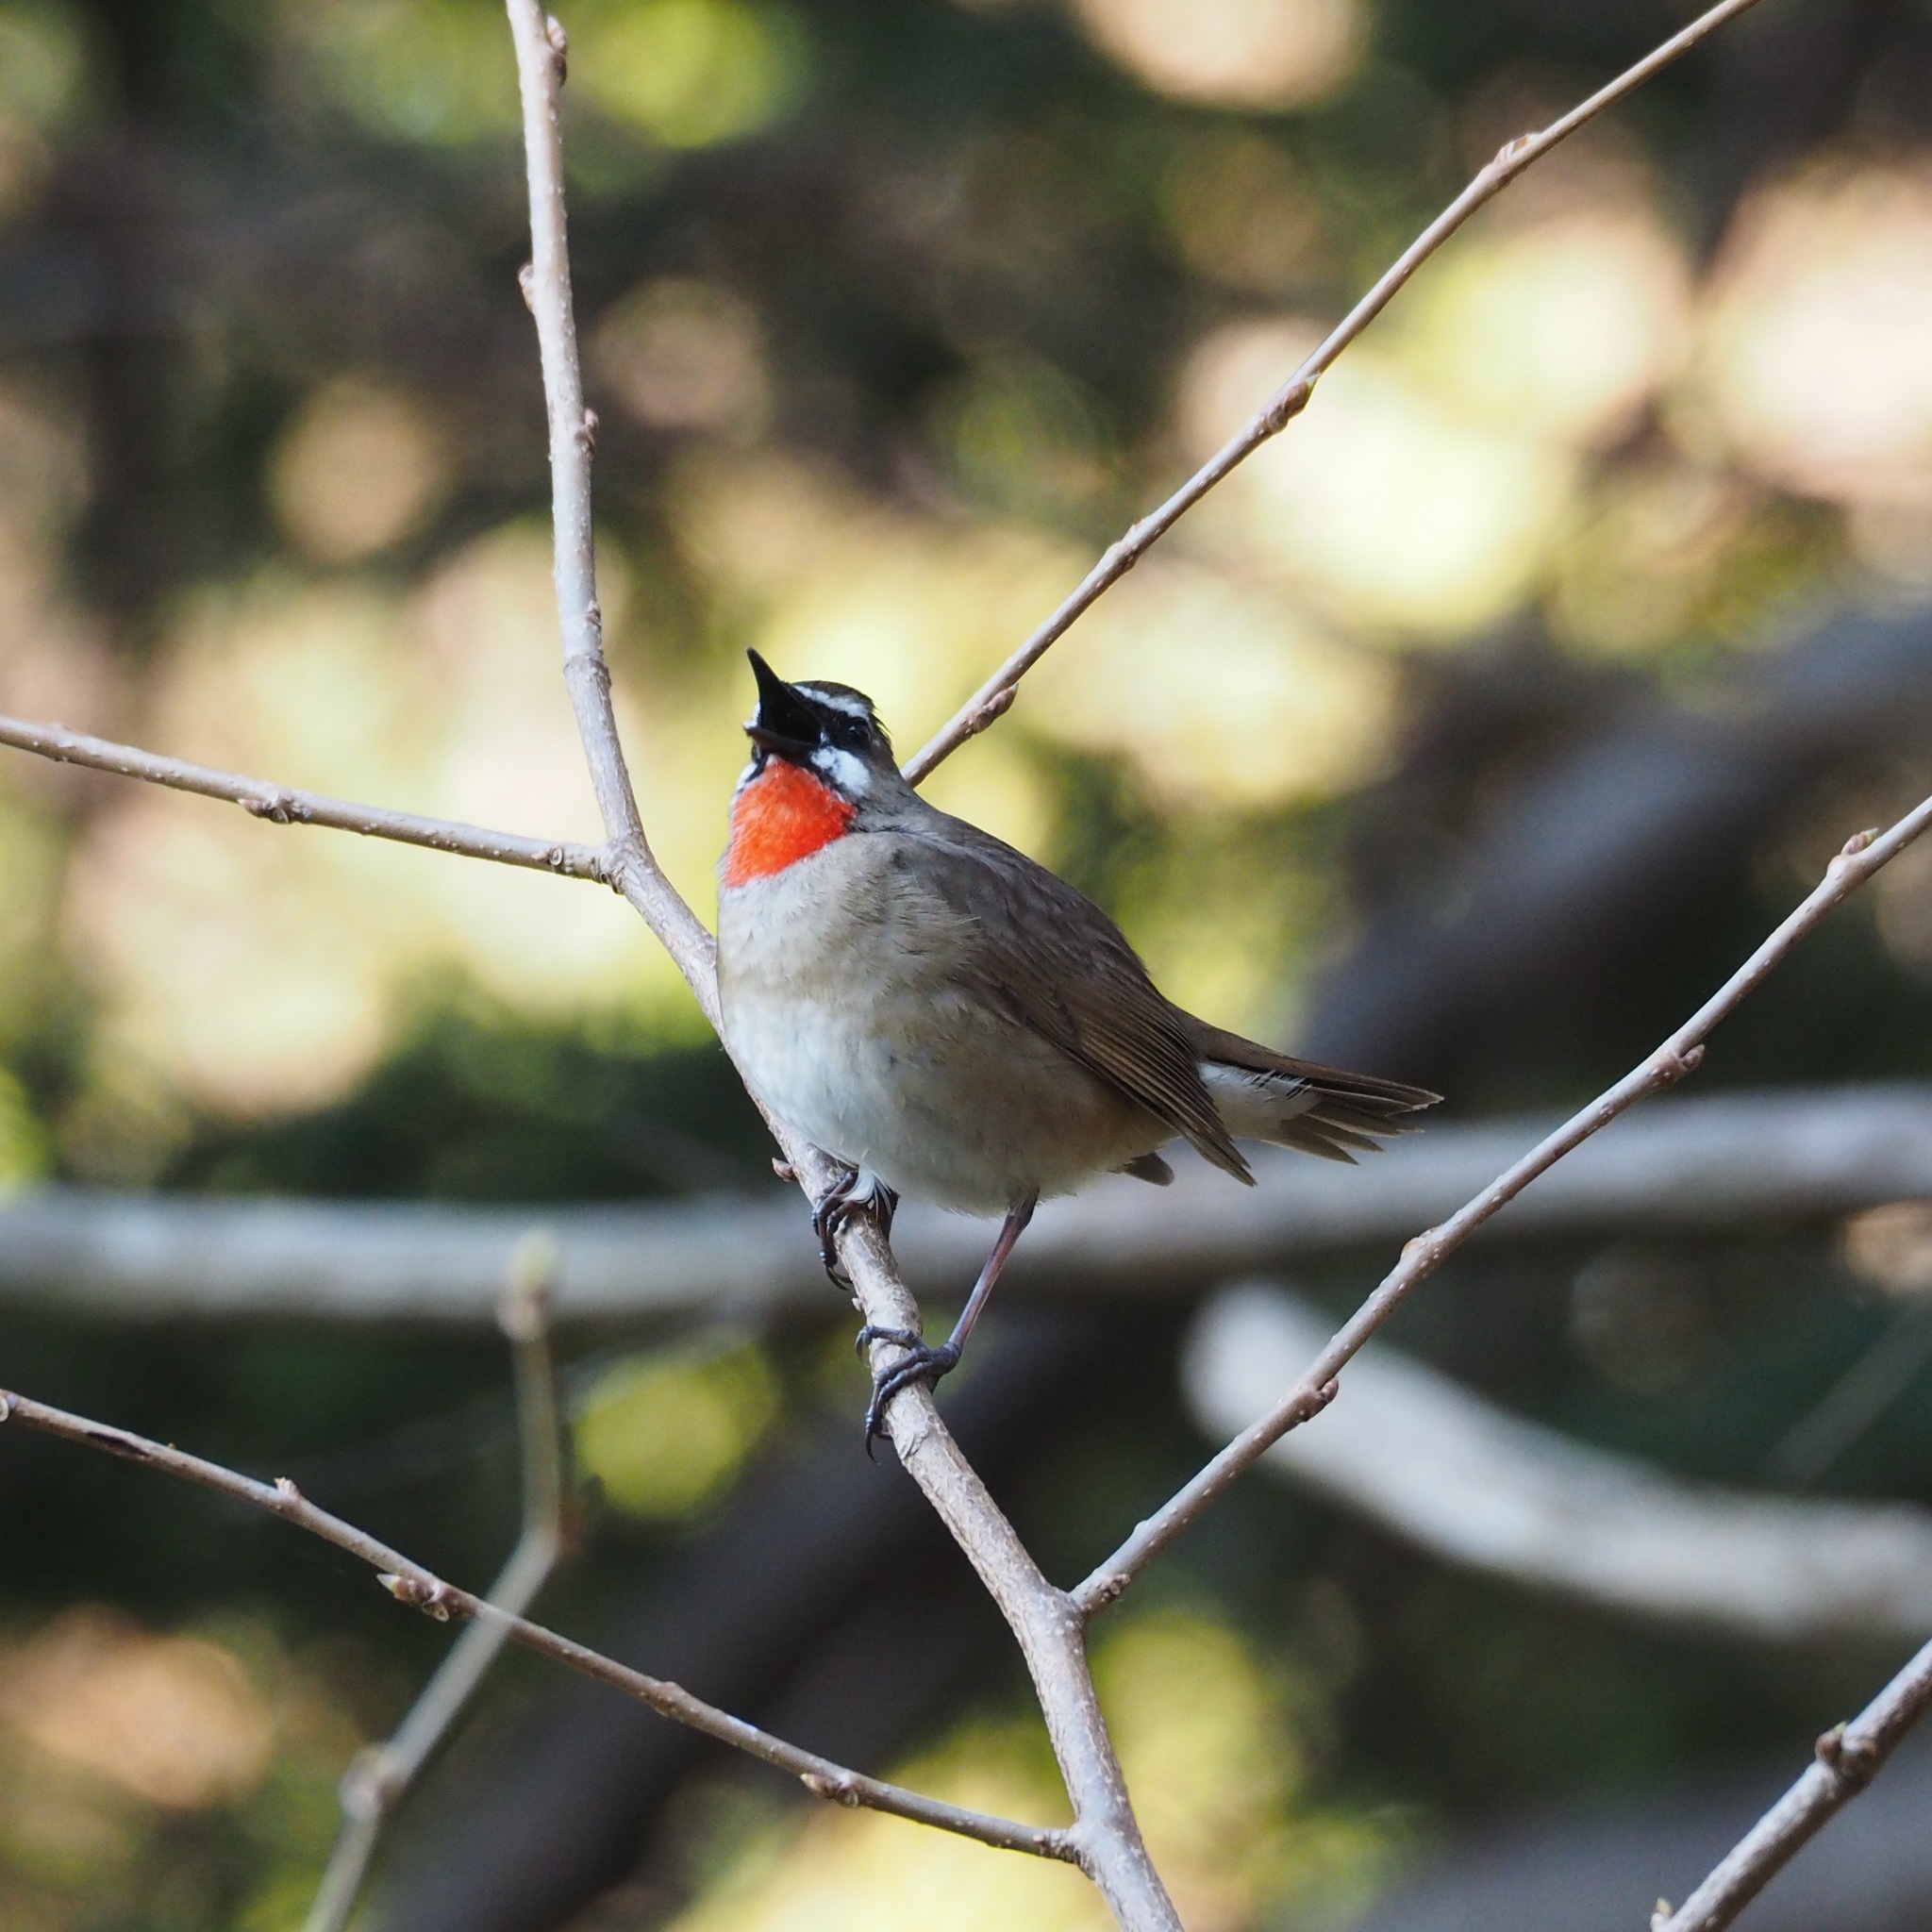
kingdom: Animalia
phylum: Chordata
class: Aves
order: Passeriformes
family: Muscicapidae
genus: Luscinia
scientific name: Luscinia calliope
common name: Siberian rubythroat
